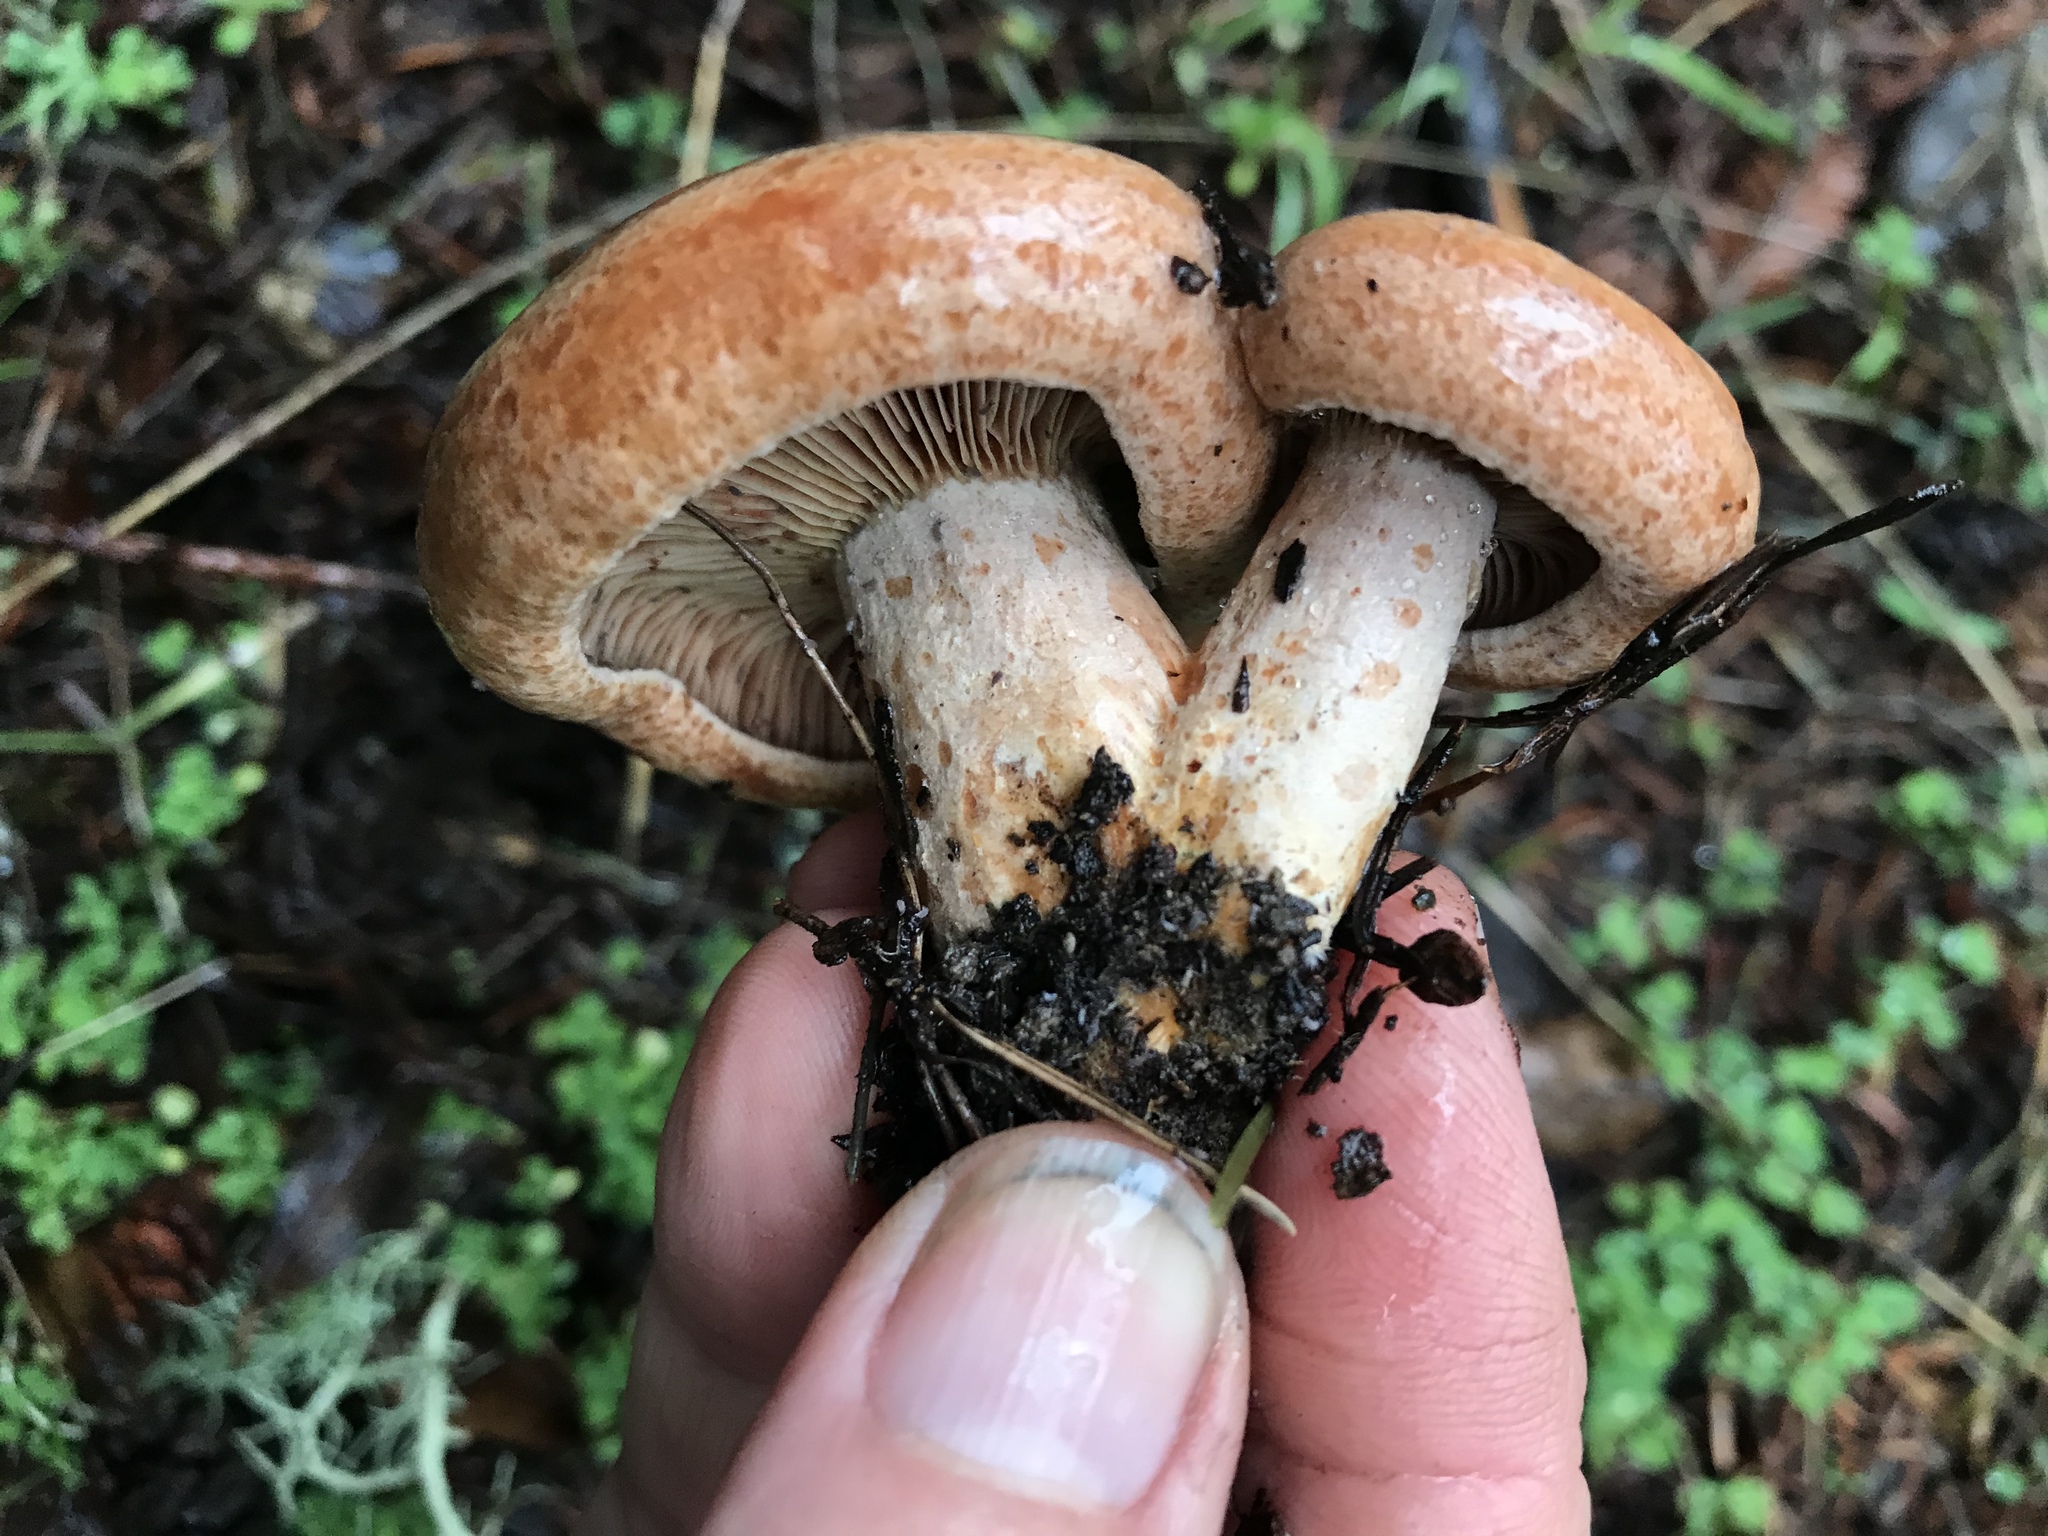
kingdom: Fungi
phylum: Basidiomycota
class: Agaricomycetes
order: Russulales
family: Russulaceae
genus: Lactarius
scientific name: Lactarius rubrilacteus
